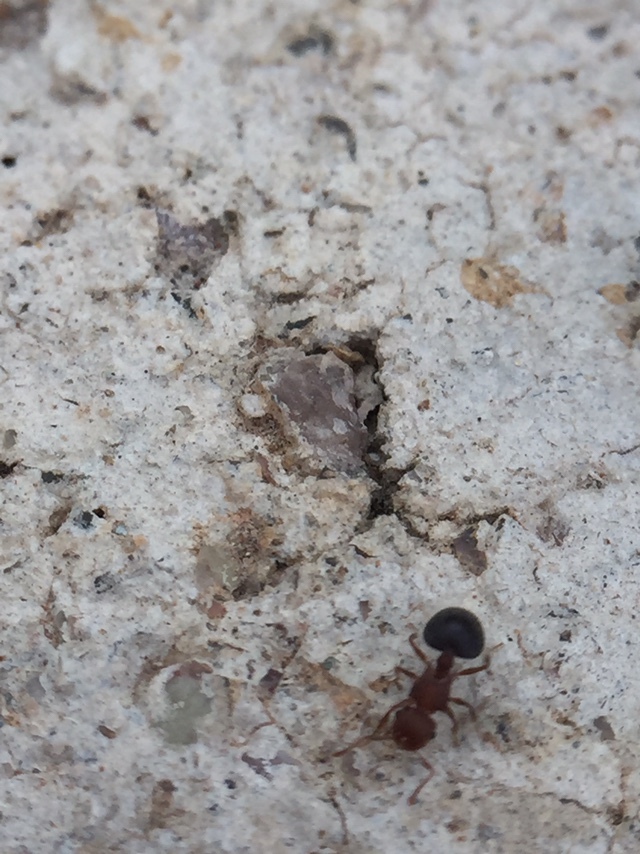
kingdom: Animalia
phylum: Arthropoda
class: Insecta
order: Hymenoptera
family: Formicidae
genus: Meranoplus
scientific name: Meranoplus bicolor
